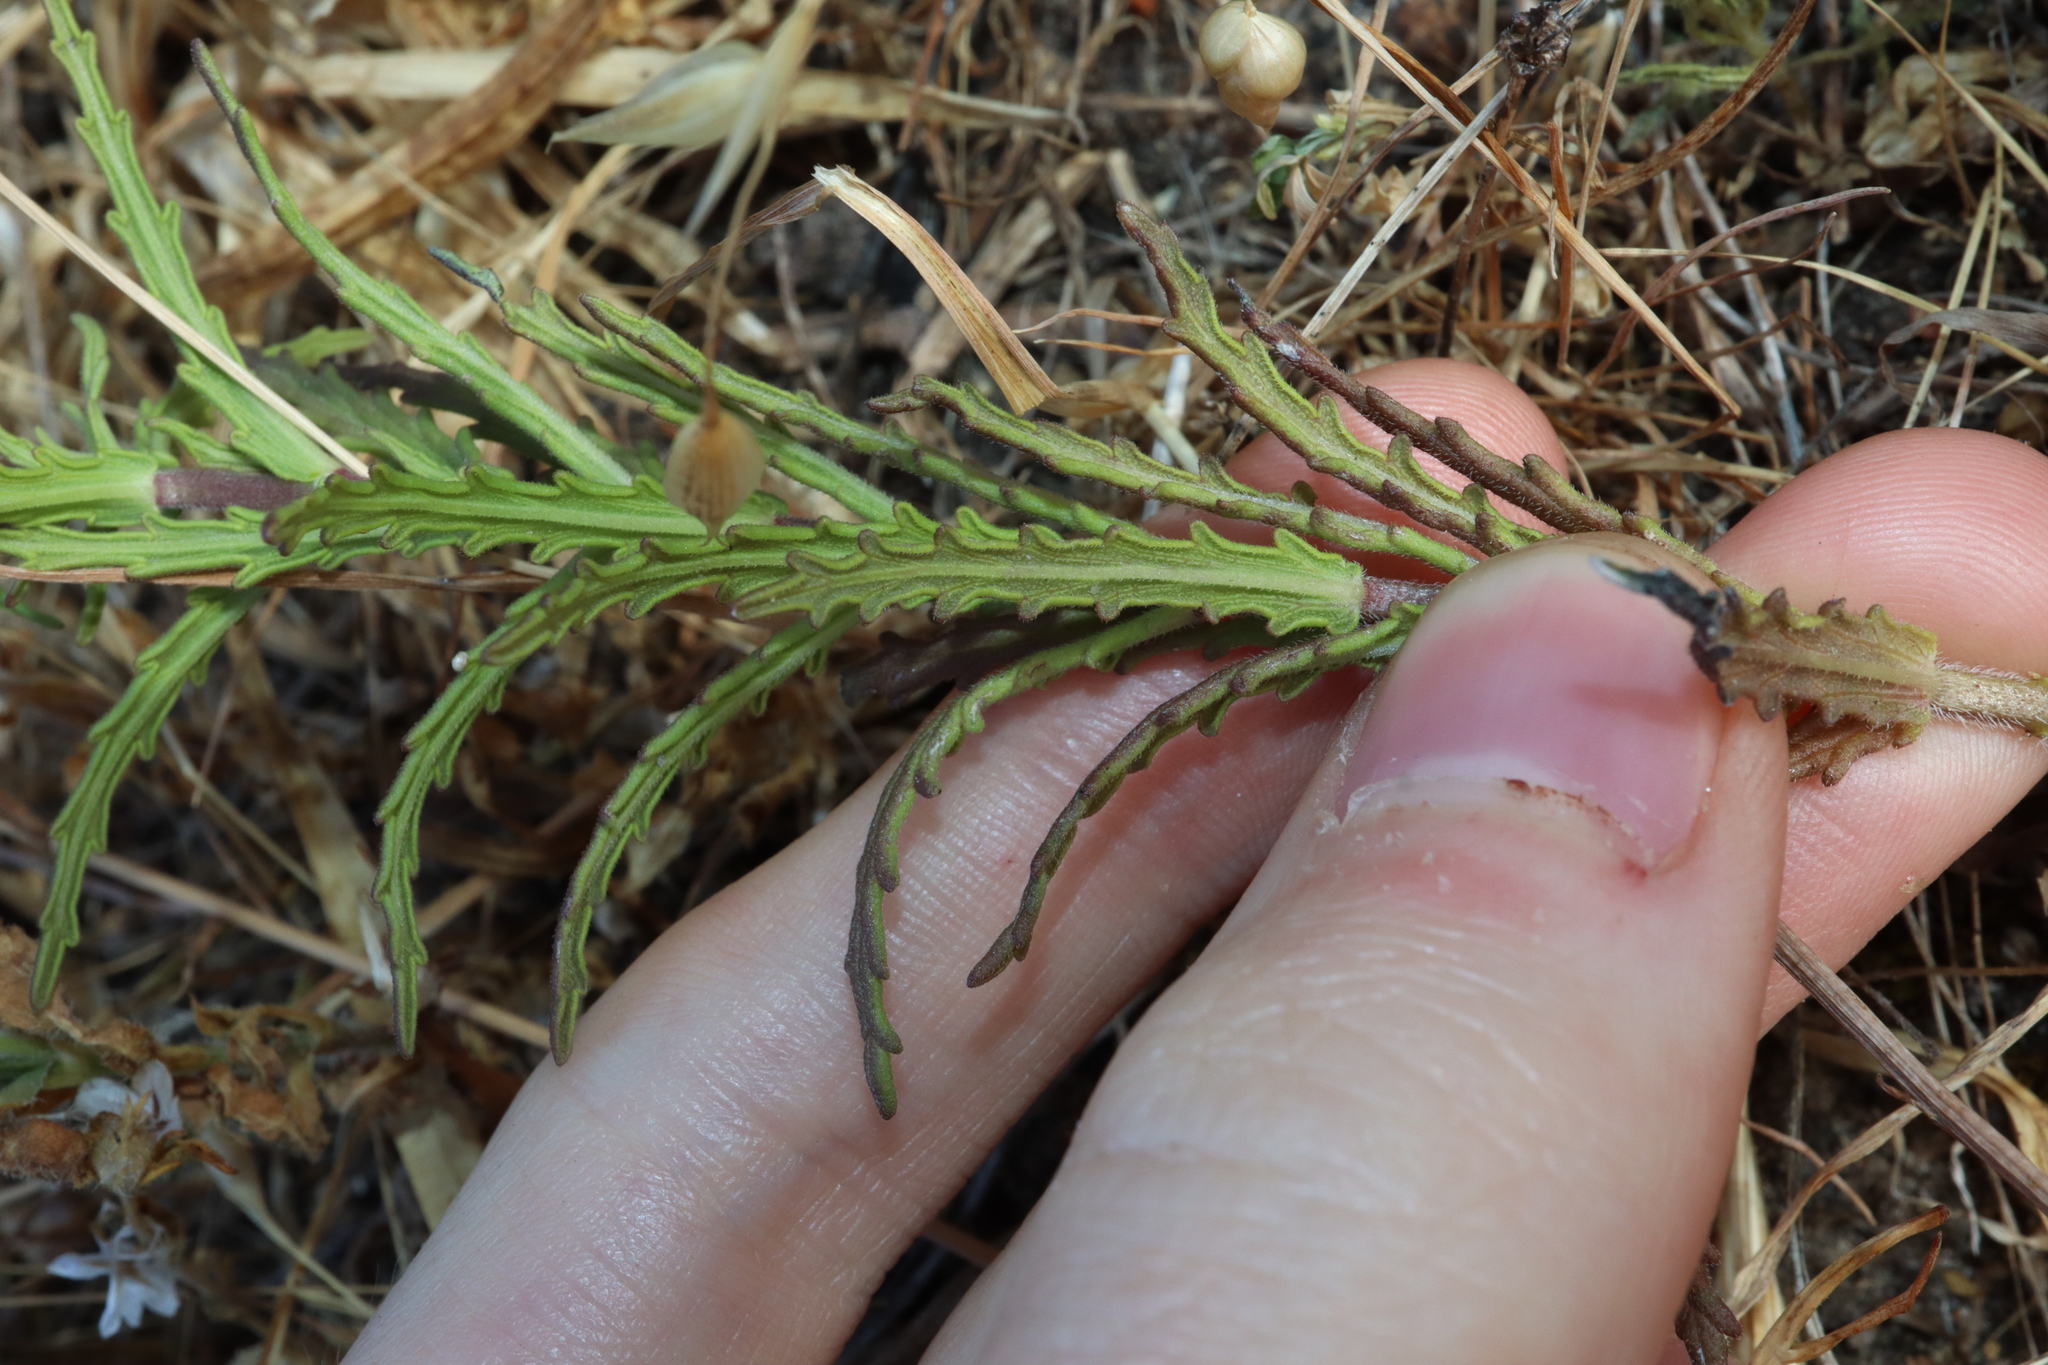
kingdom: Plantae
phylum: Tracheophyta
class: Magnoliopsida
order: Lamiales
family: Orobanchaceae
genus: Bellardia
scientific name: Bellardia trixago
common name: Mediterranean lineseed
